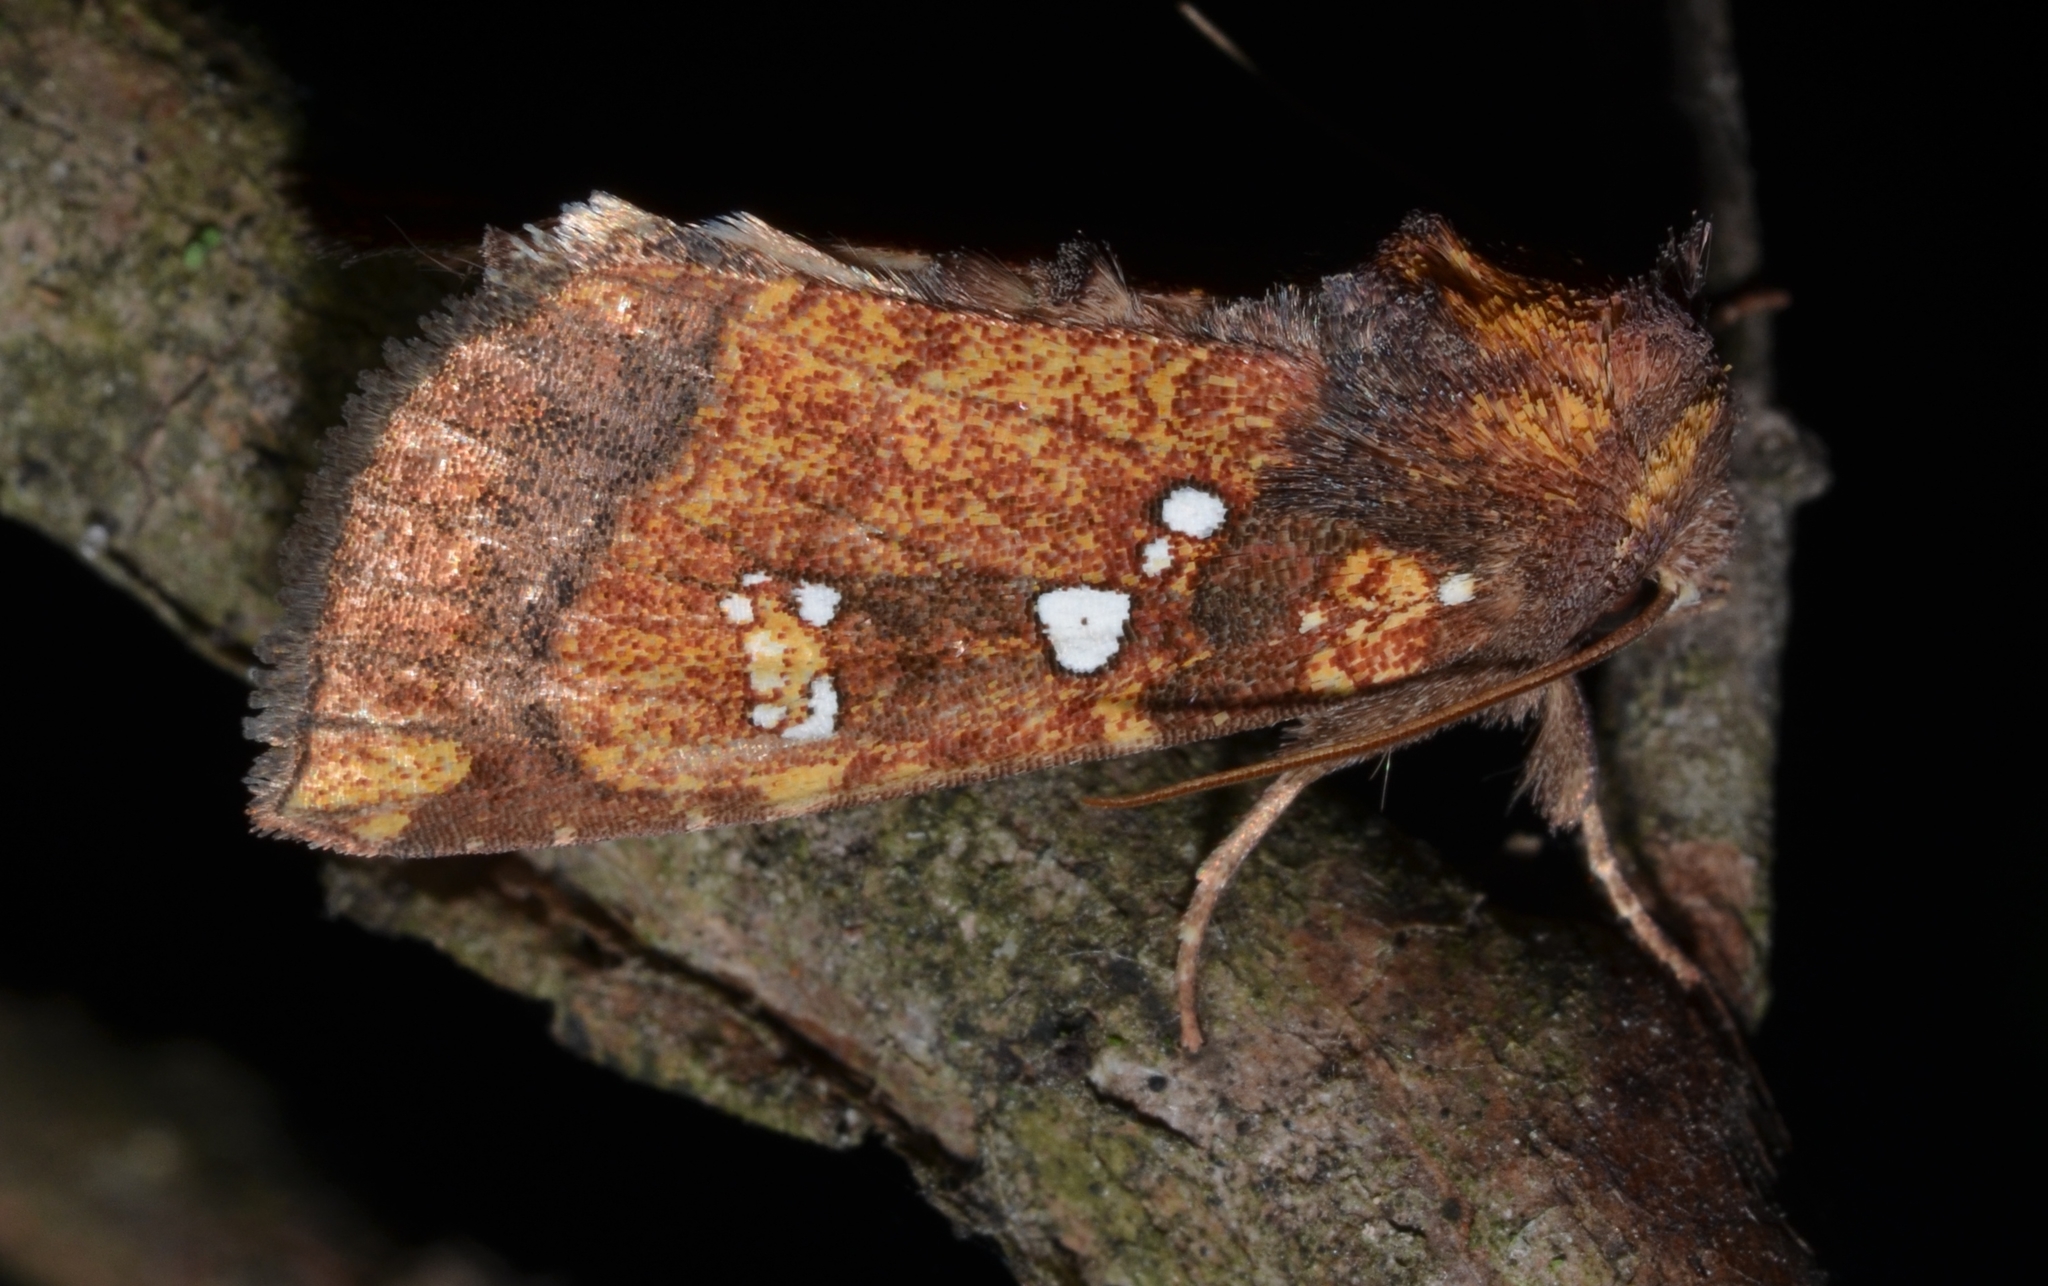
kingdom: Animalia
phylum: Arthropoda
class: Insecta
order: Lepidoptera
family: Noctuidae
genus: Papaipema
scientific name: Papaipema arctivorens
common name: Northern burdock borer moth
